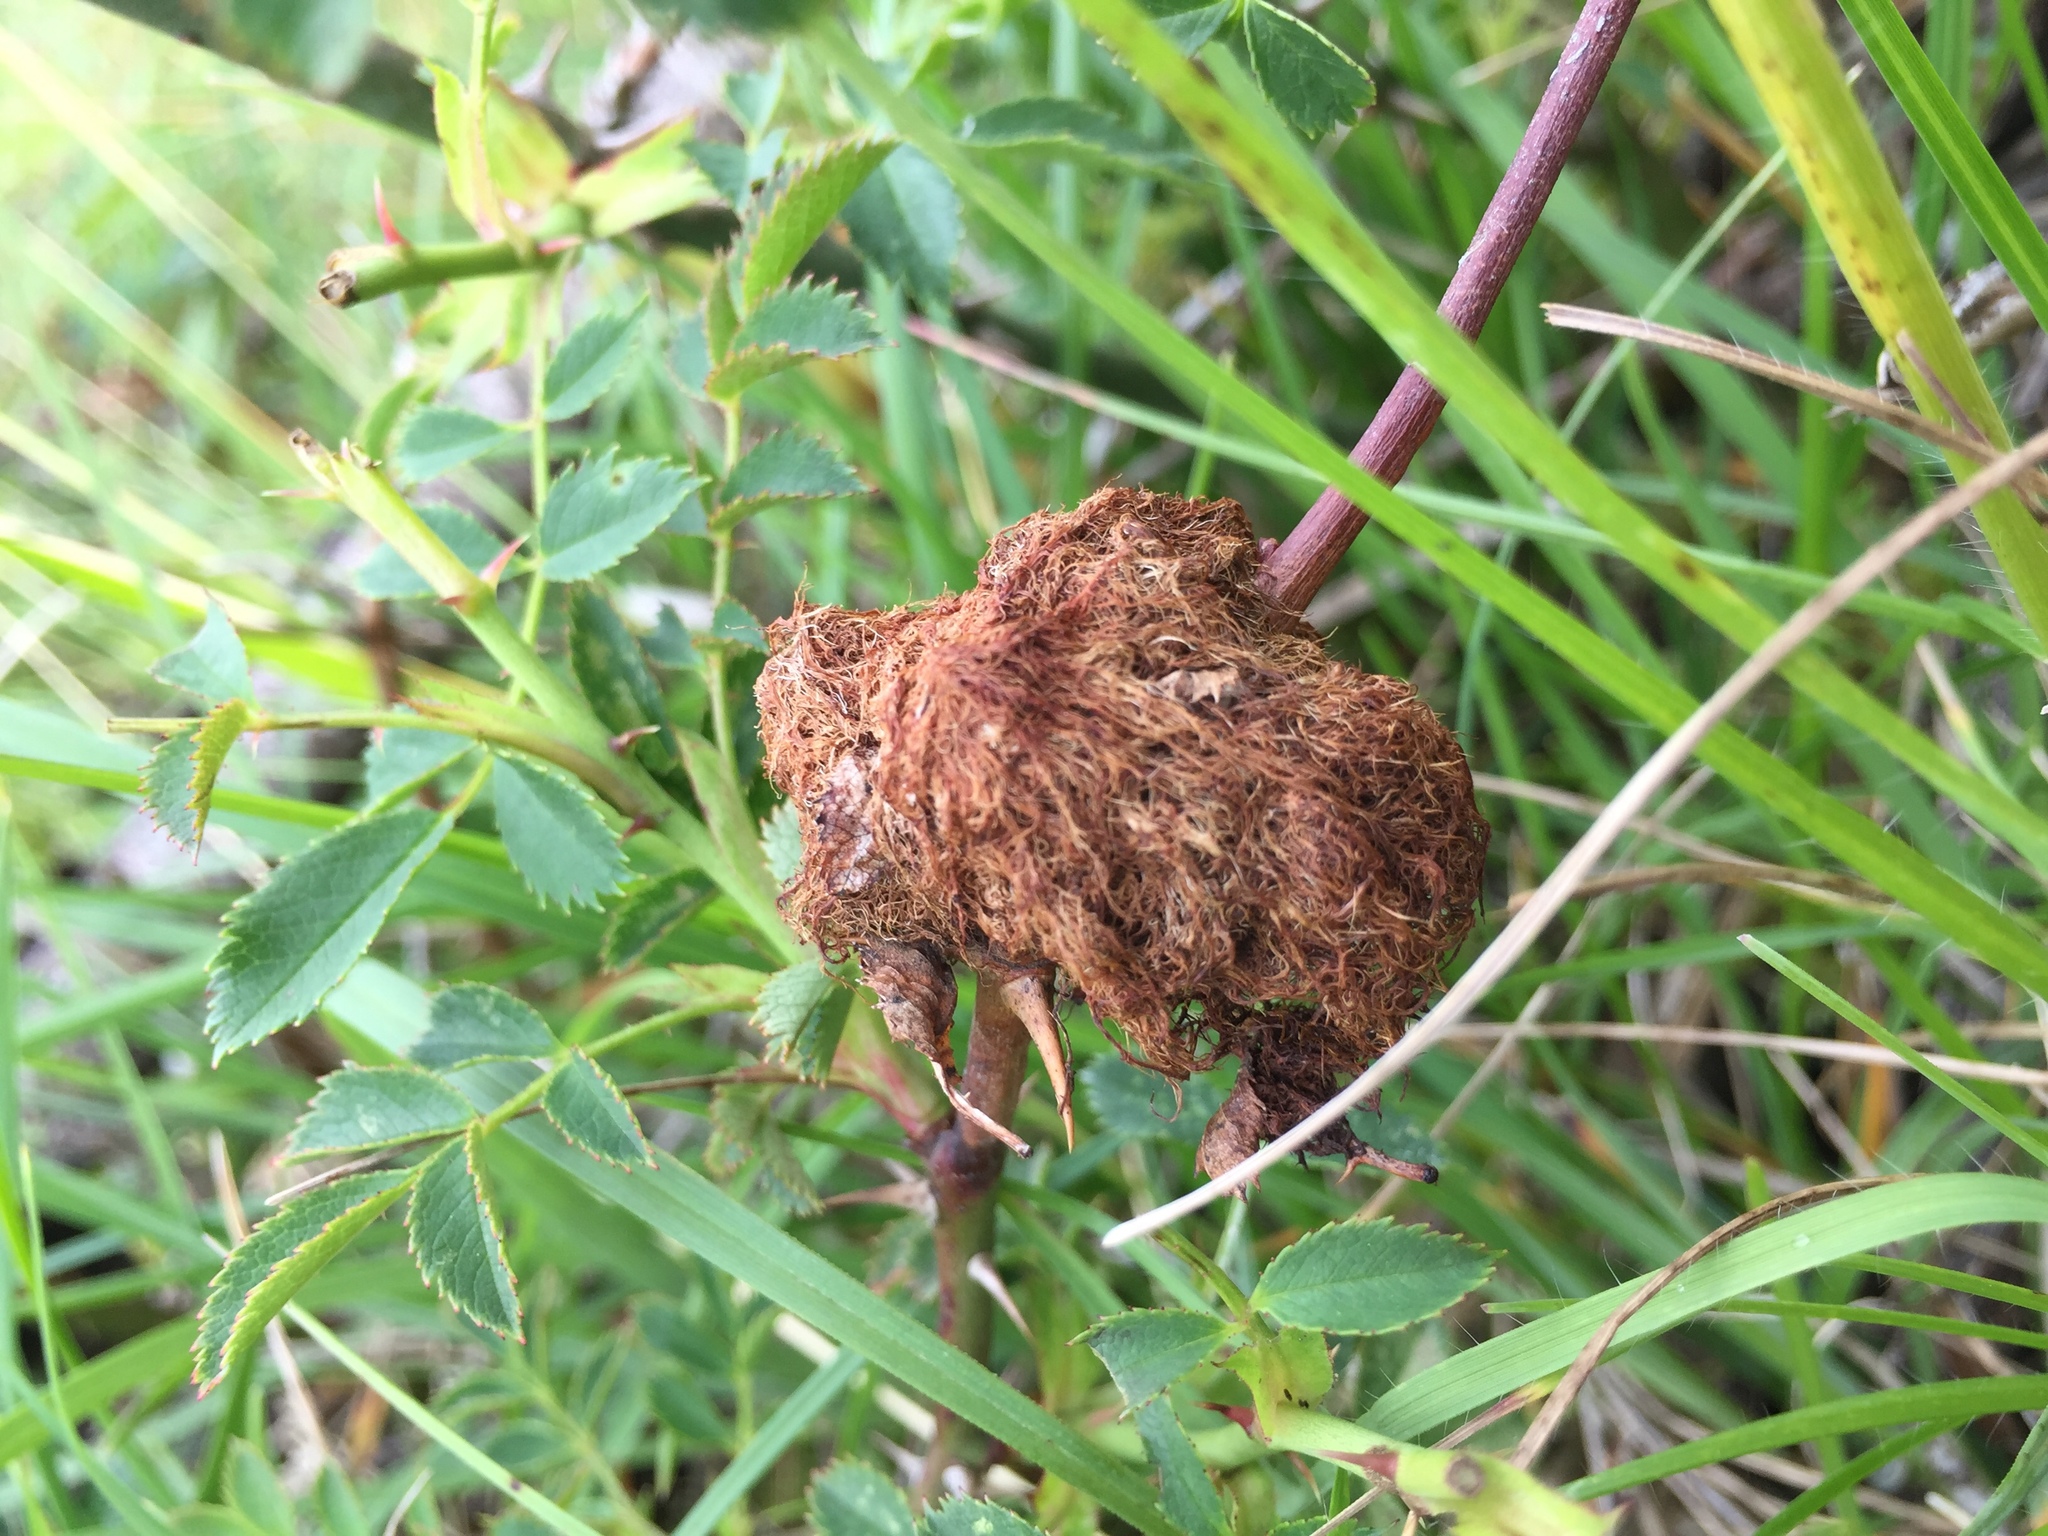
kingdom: Animalia
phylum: Arthropoda
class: Insecta
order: Hymenoptera
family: Cynipidae
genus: Diplolepis
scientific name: Diplolepis rosae
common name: Bedeguar gall
